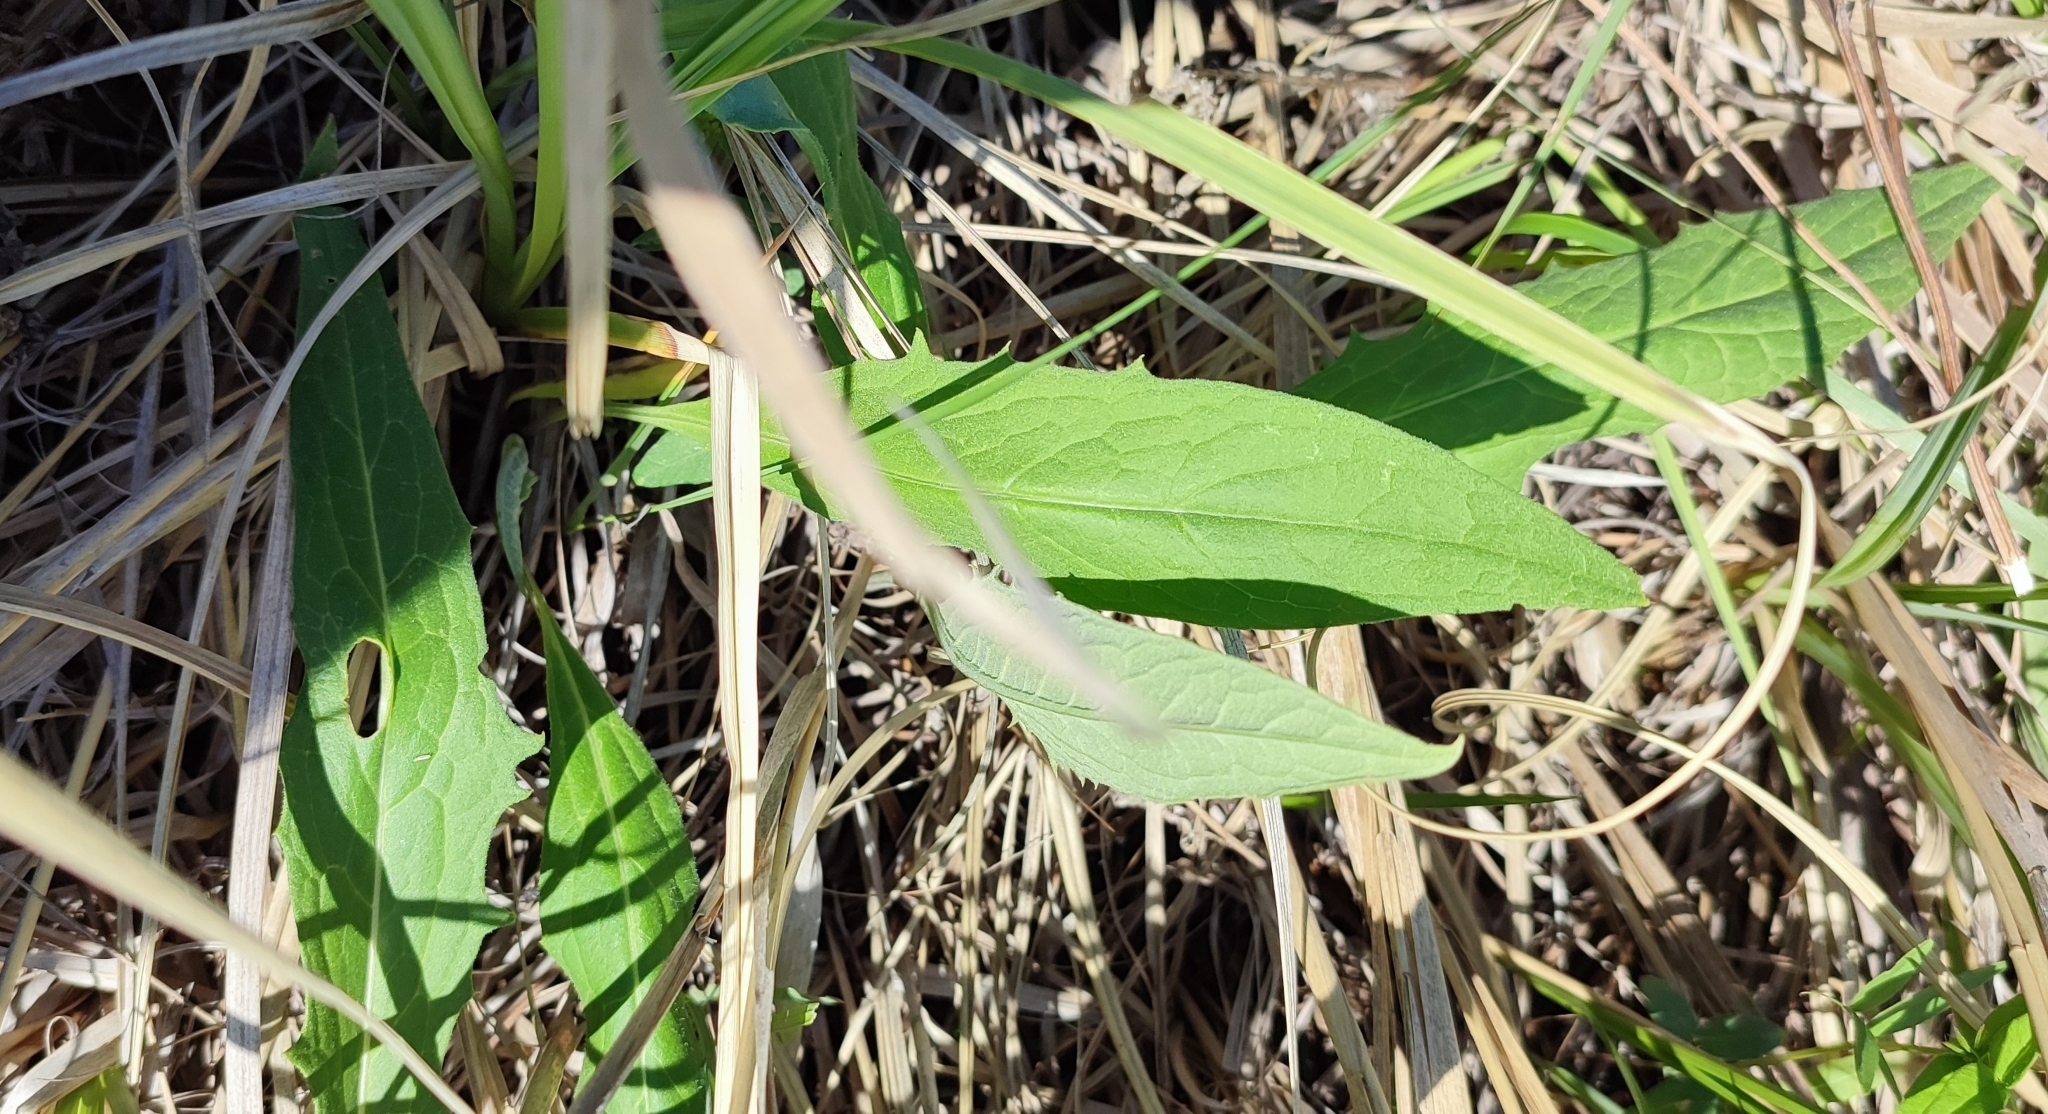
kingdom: Plantae
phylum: Tracheophyta
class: Magnoliopsida
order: Asterales
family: Asteraceae
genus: Saussurea
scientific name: Saussurea amara
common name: Alberta sawwort
